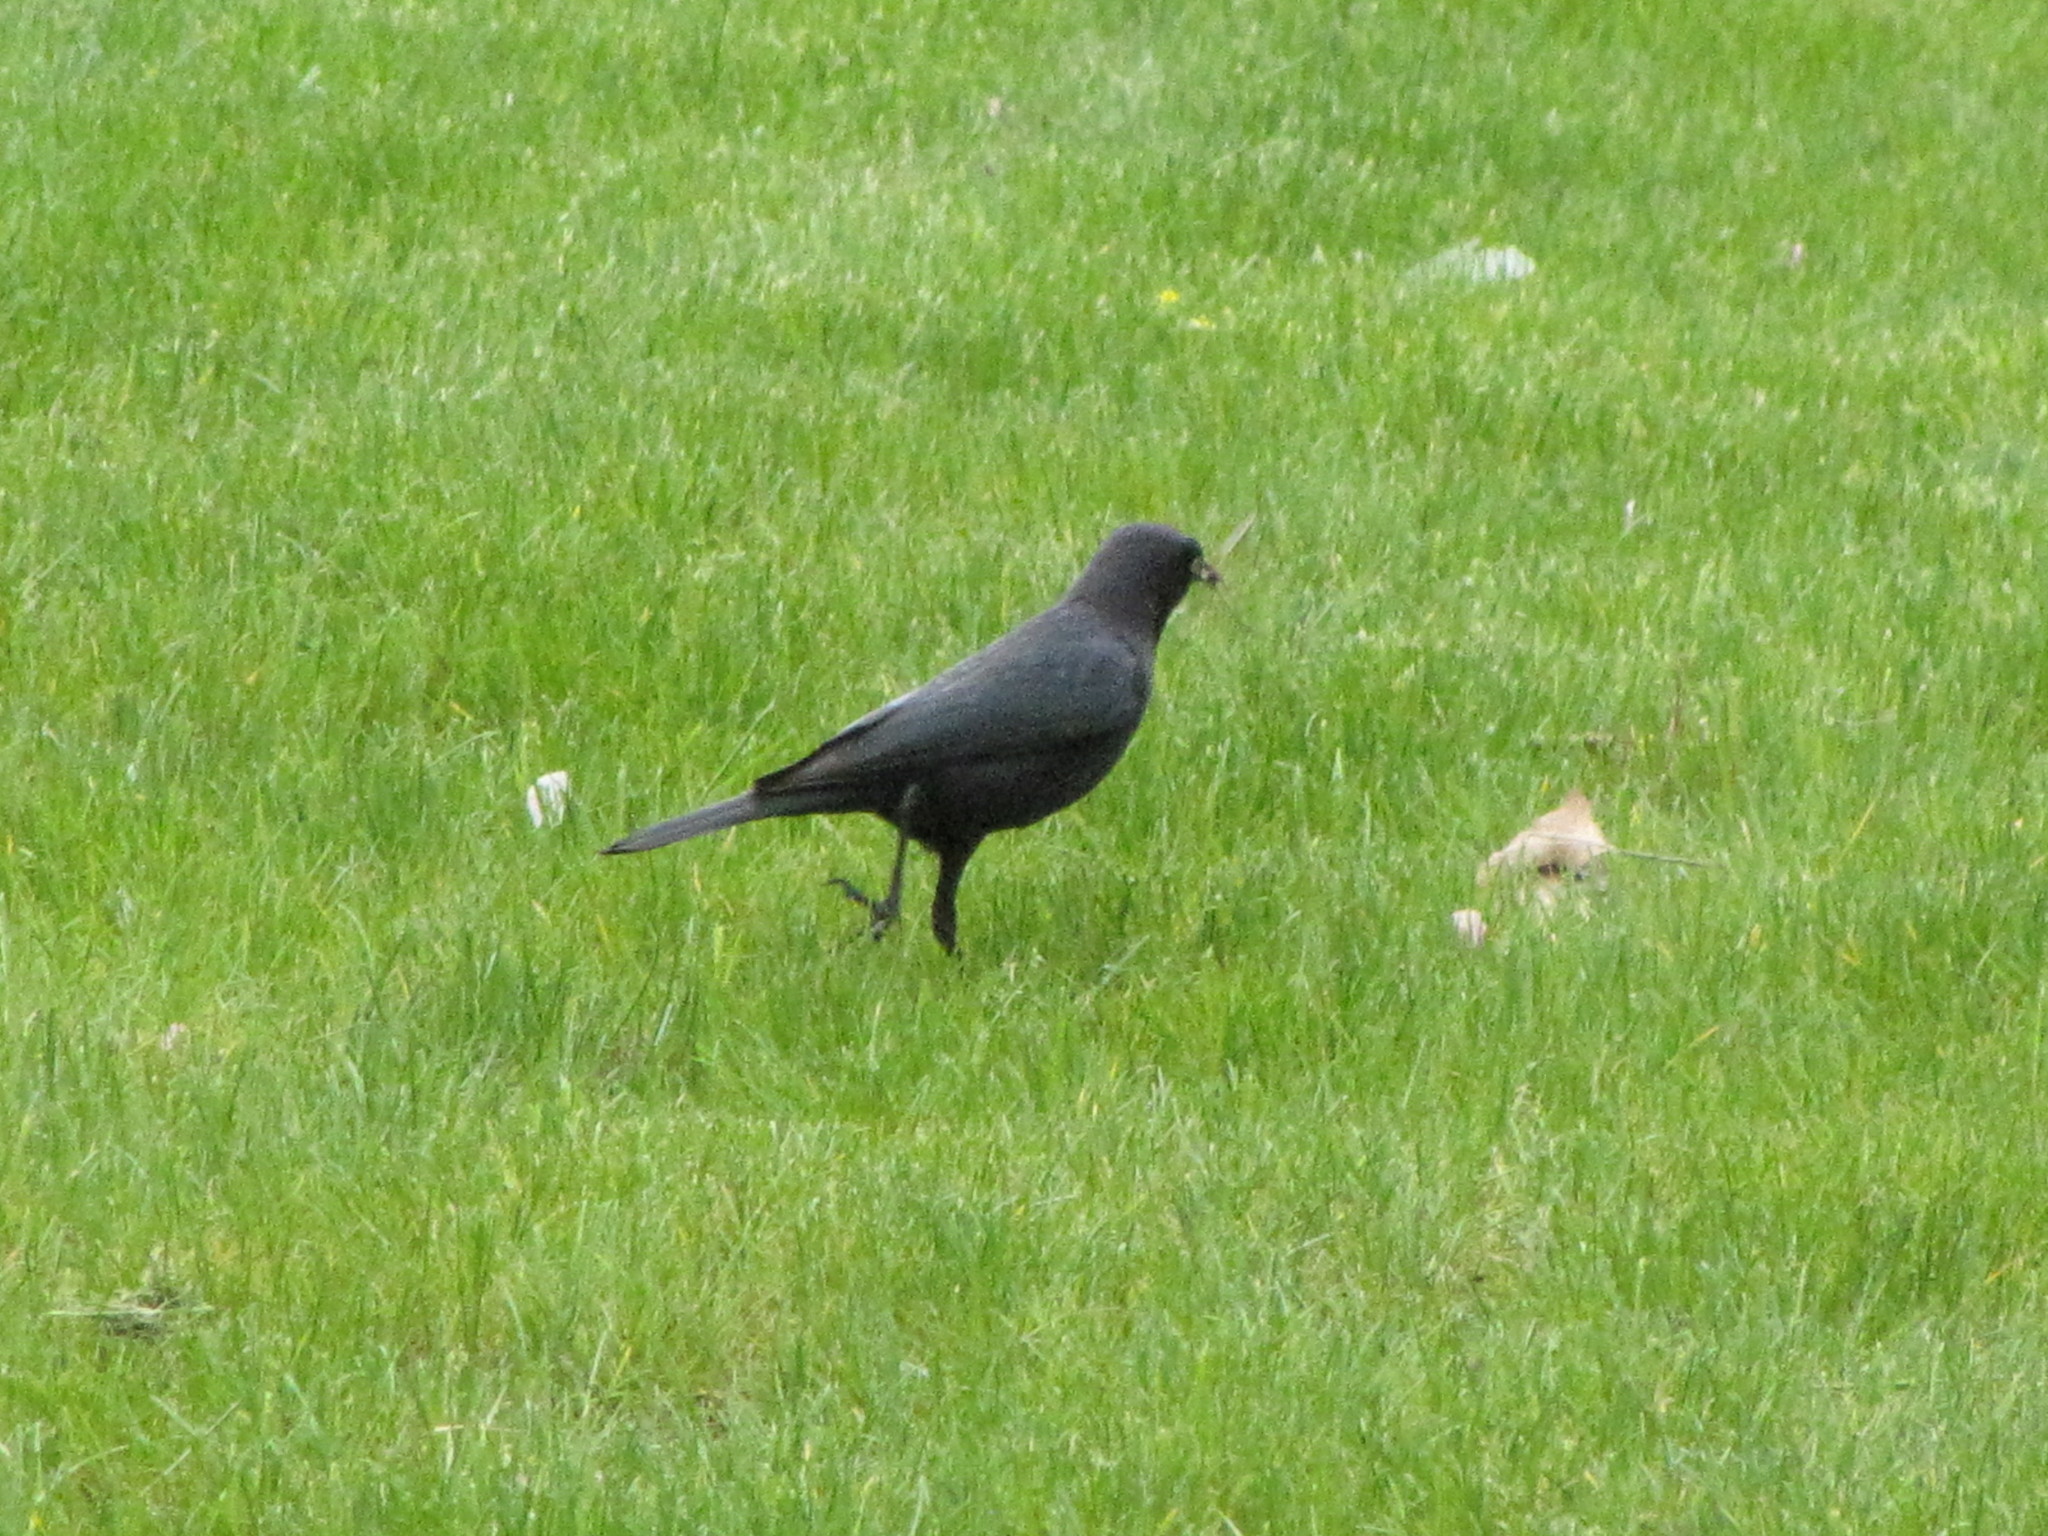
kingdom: Animalia
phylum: Chordata
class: Aves
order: Passeriformes
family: Icteridae
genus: Euphagus
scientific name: Euphagus cyanocephalus
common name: Brewer's blackbird
